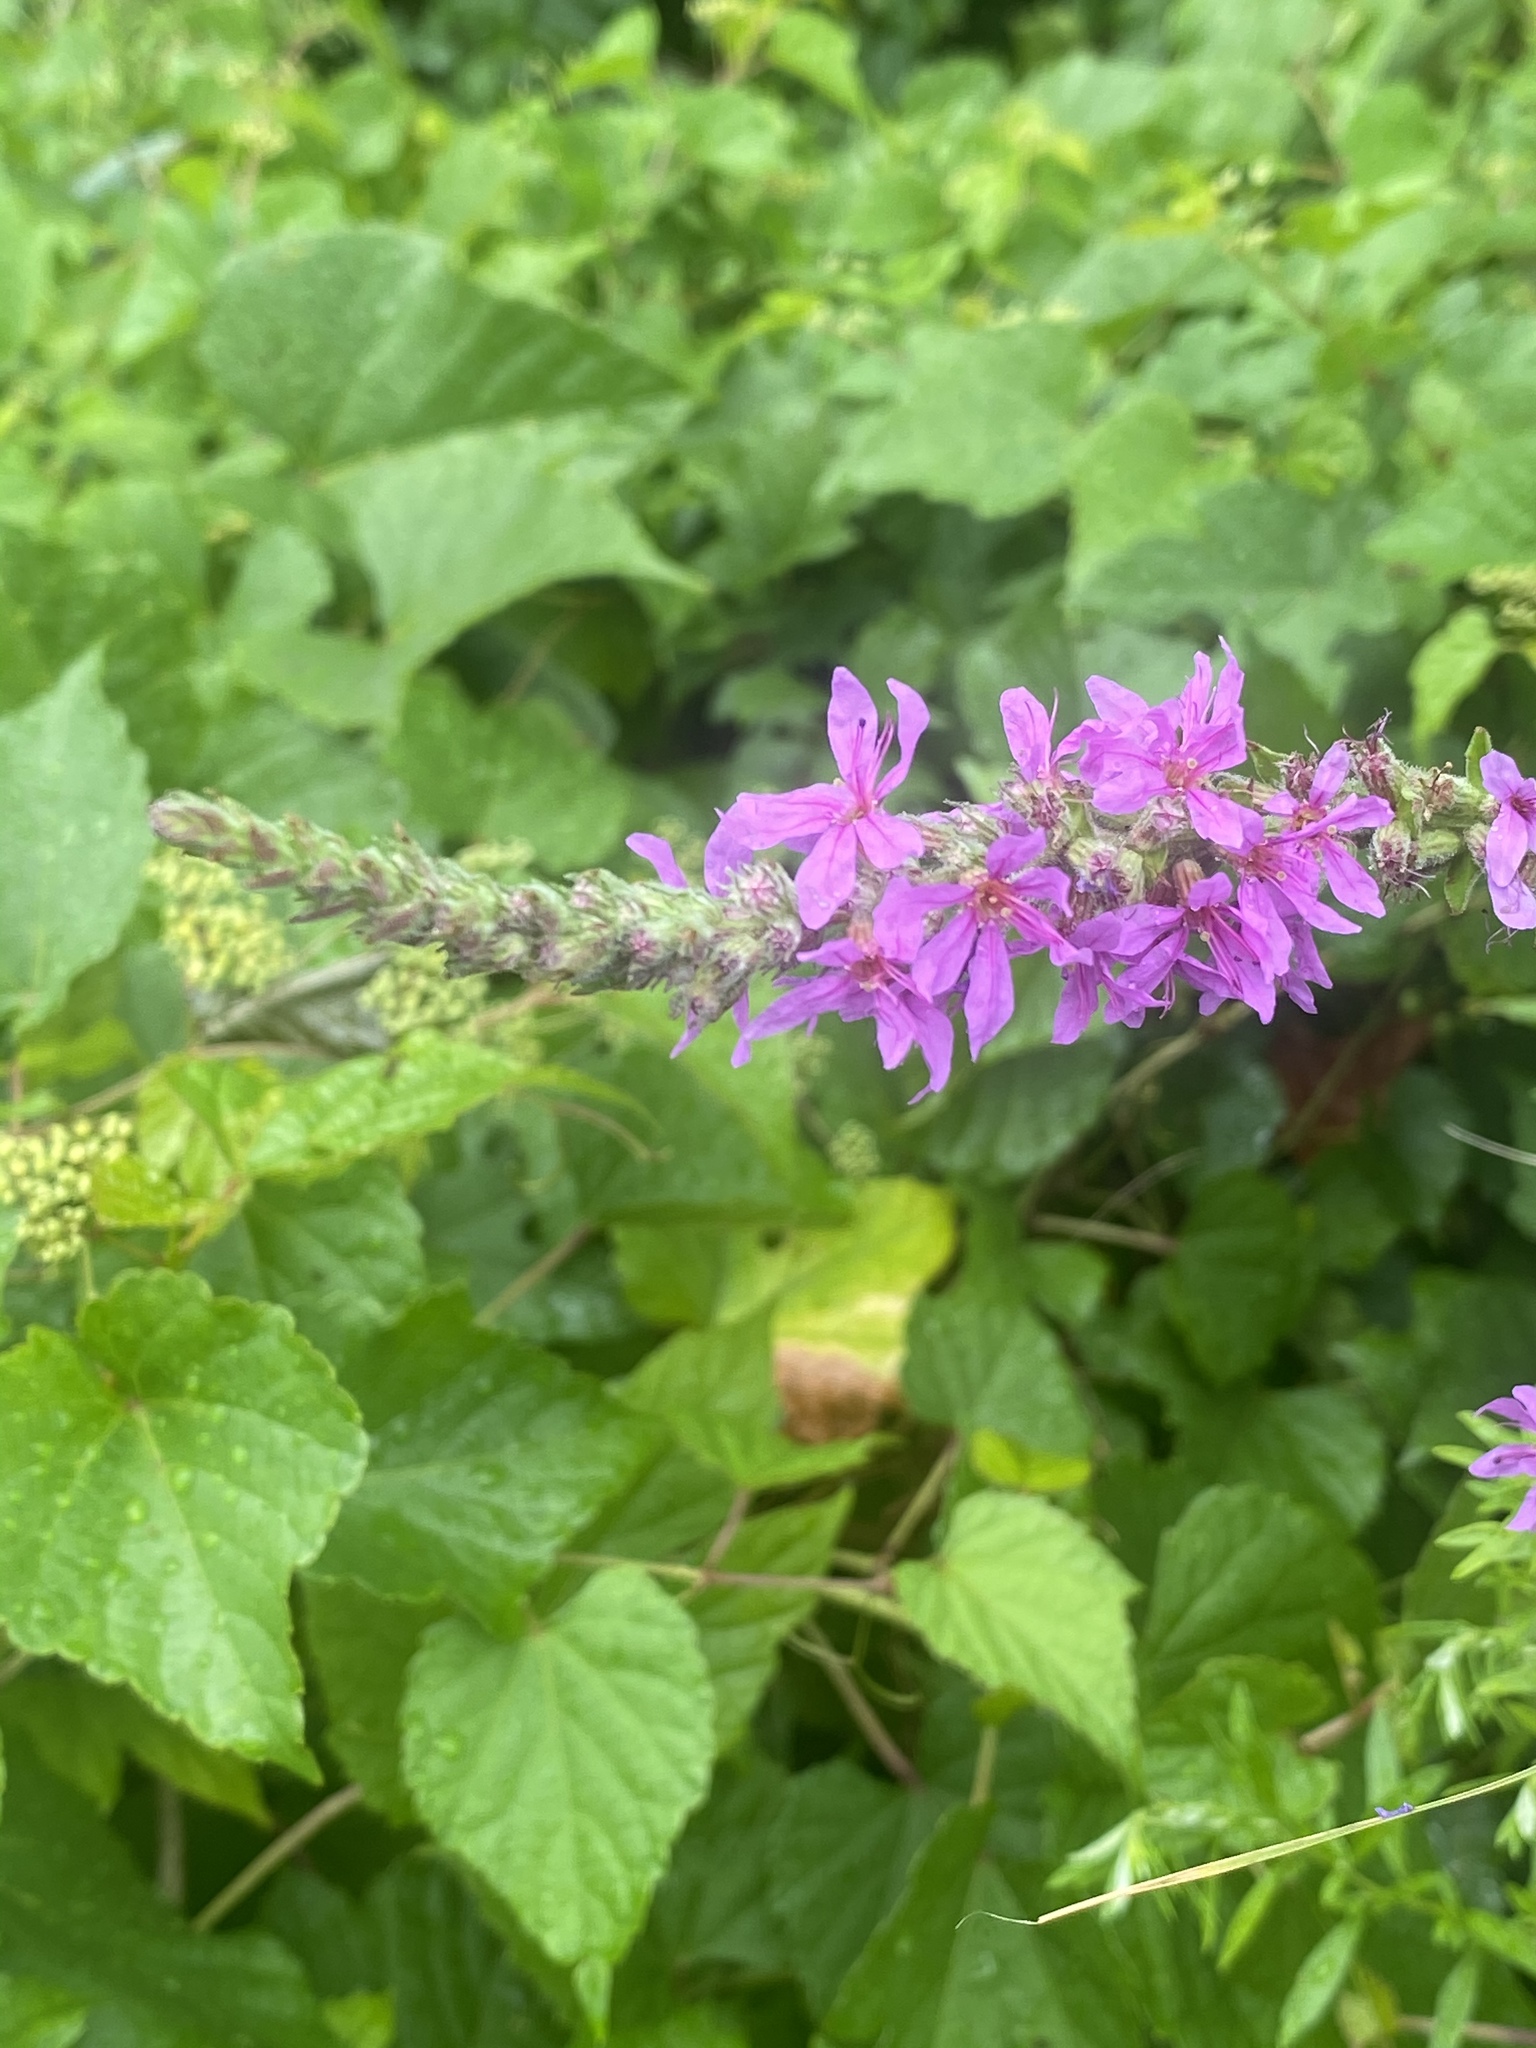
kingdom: Plantae
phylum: Tracheophyta
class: Magnoliopsida
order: Myrtales
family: Lythraceae
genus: Lythrum
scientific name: Lythrum salicaria
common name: Purple loosestrife
